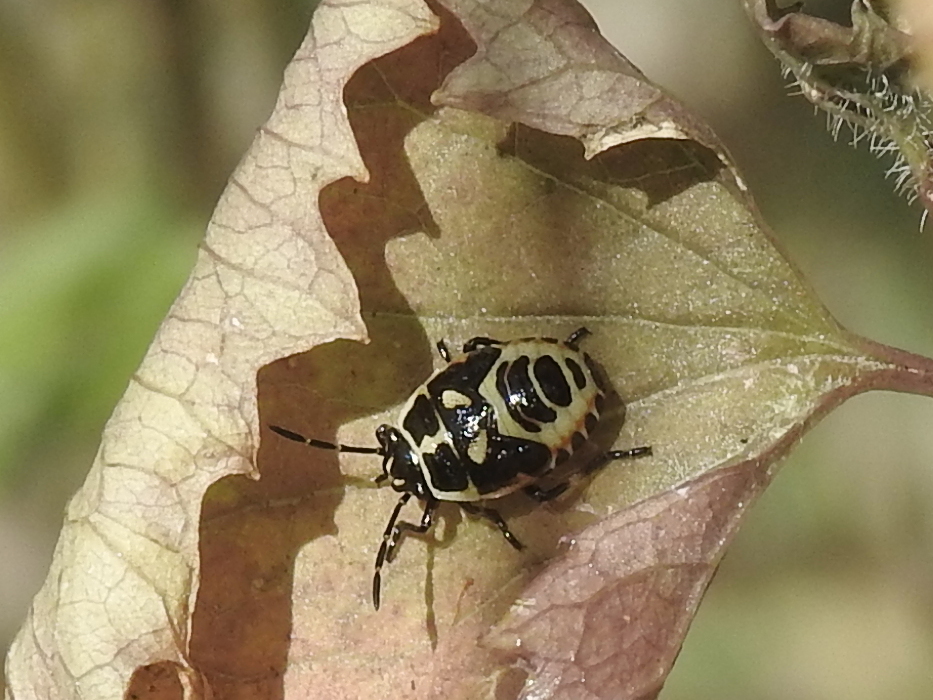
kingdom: Animalia
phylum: Arthropoda
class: Insecta
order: Hemiptera
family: Pentatomidae
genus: Eurydema
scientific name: Eurydema oleracea
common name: Cabbage bug
